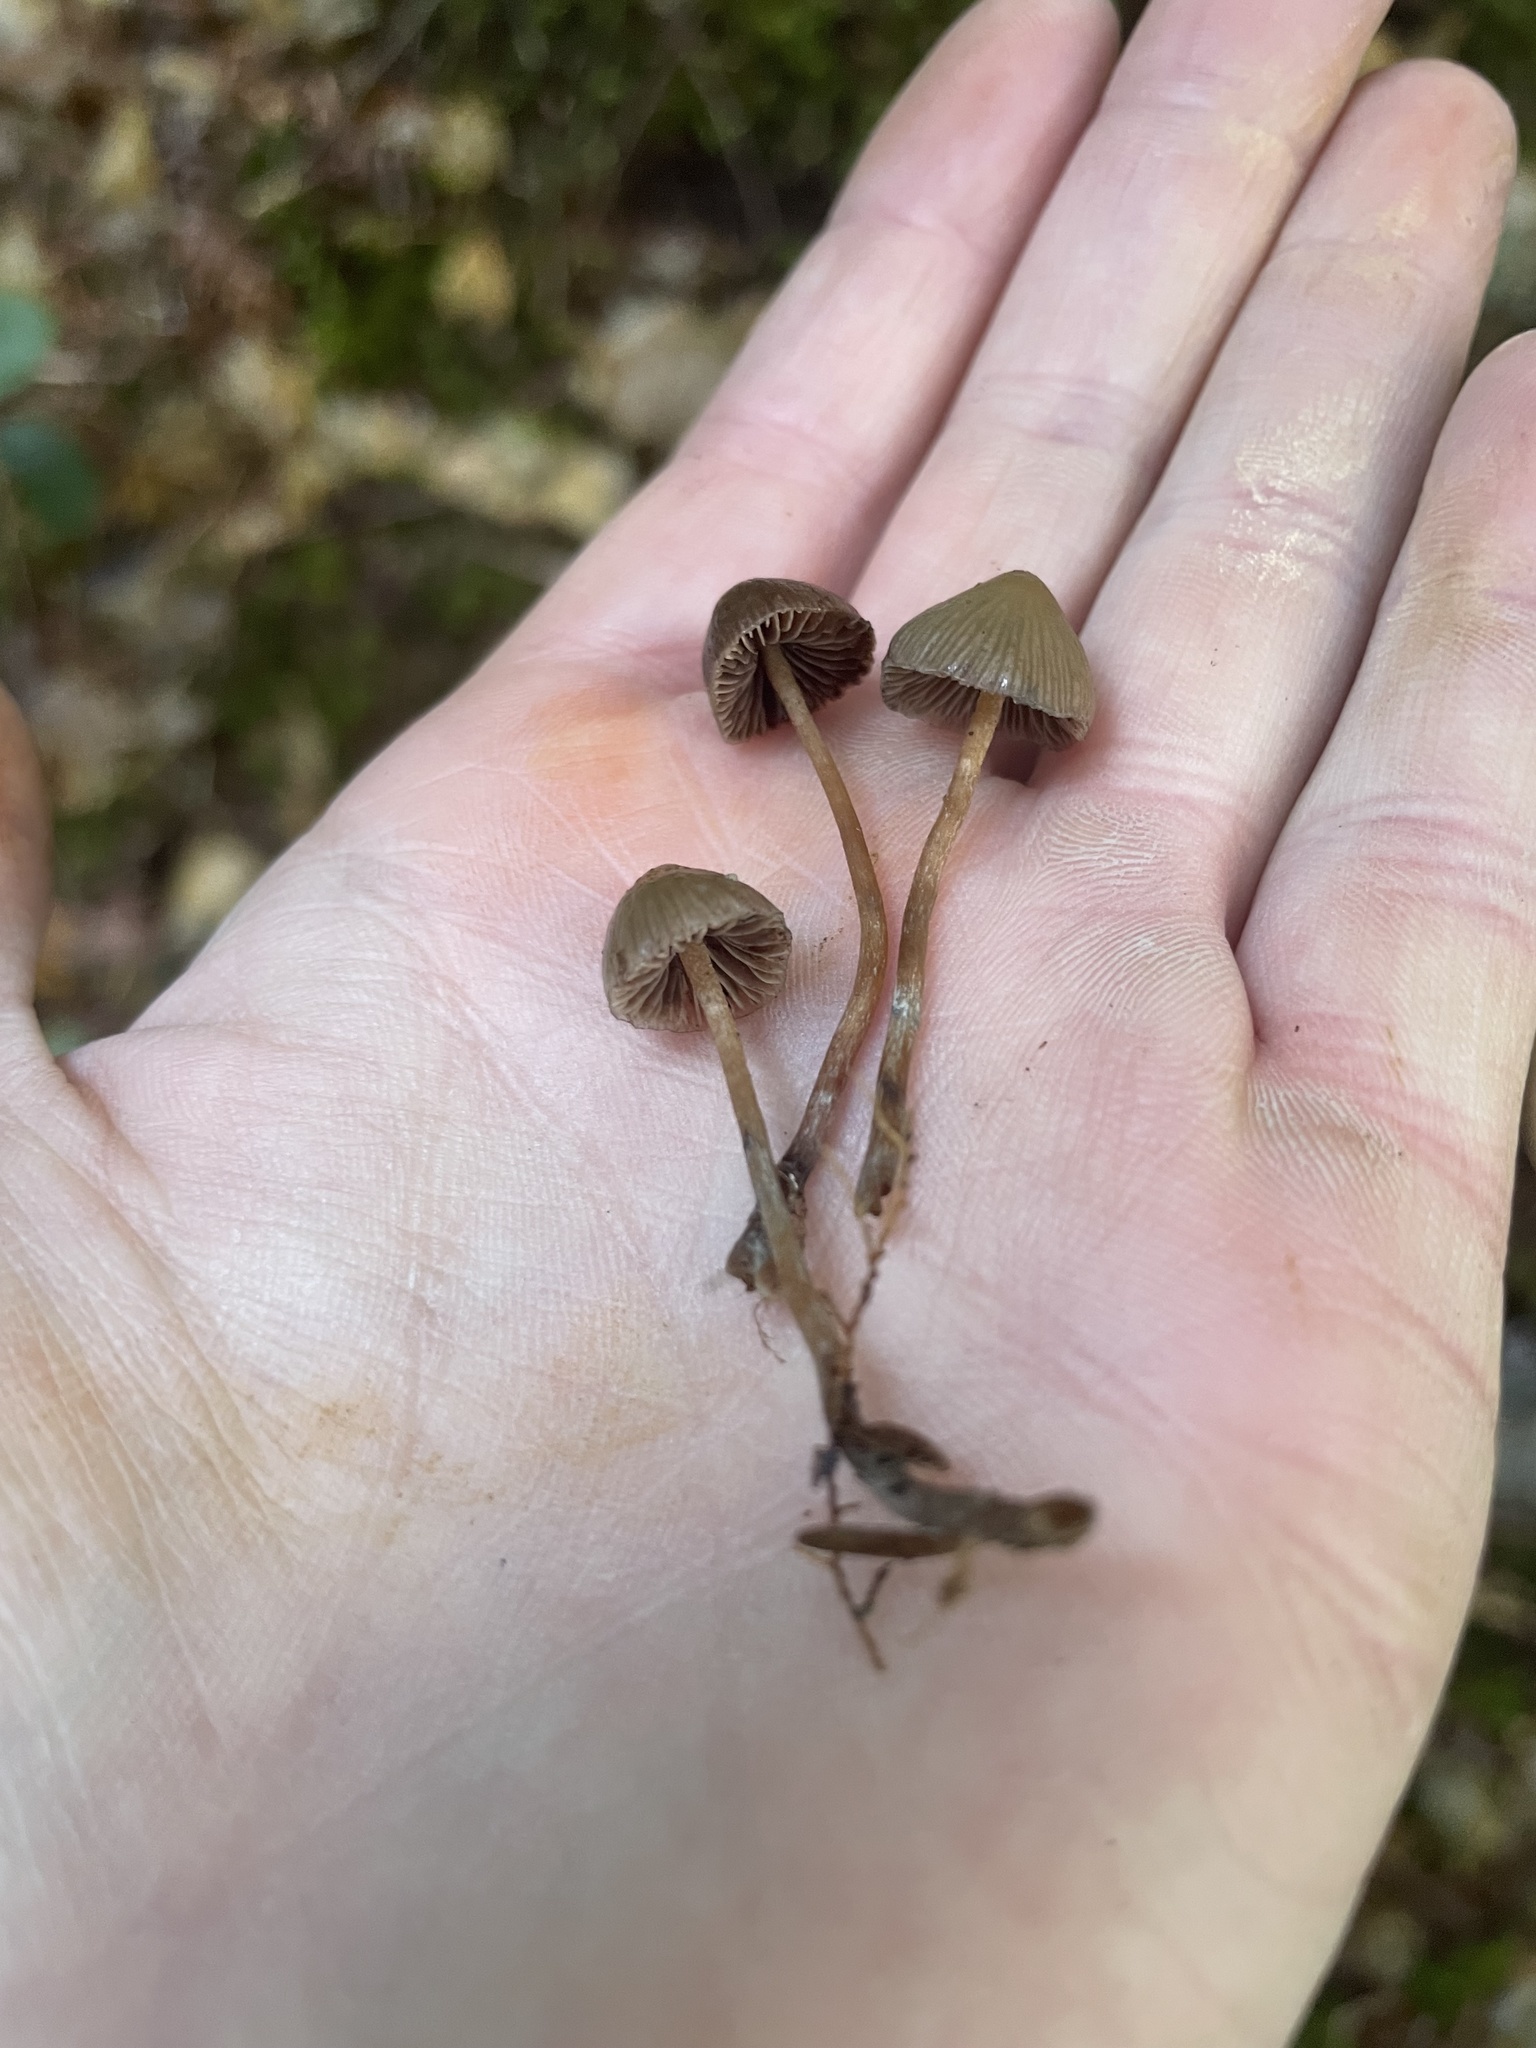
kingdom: Fungi
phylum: Basidiomycota
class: Agaricomycetes
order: Agaricales
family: Hymenogastraceae
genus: Psilocybe
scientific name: Psilocybe pelliculosa
